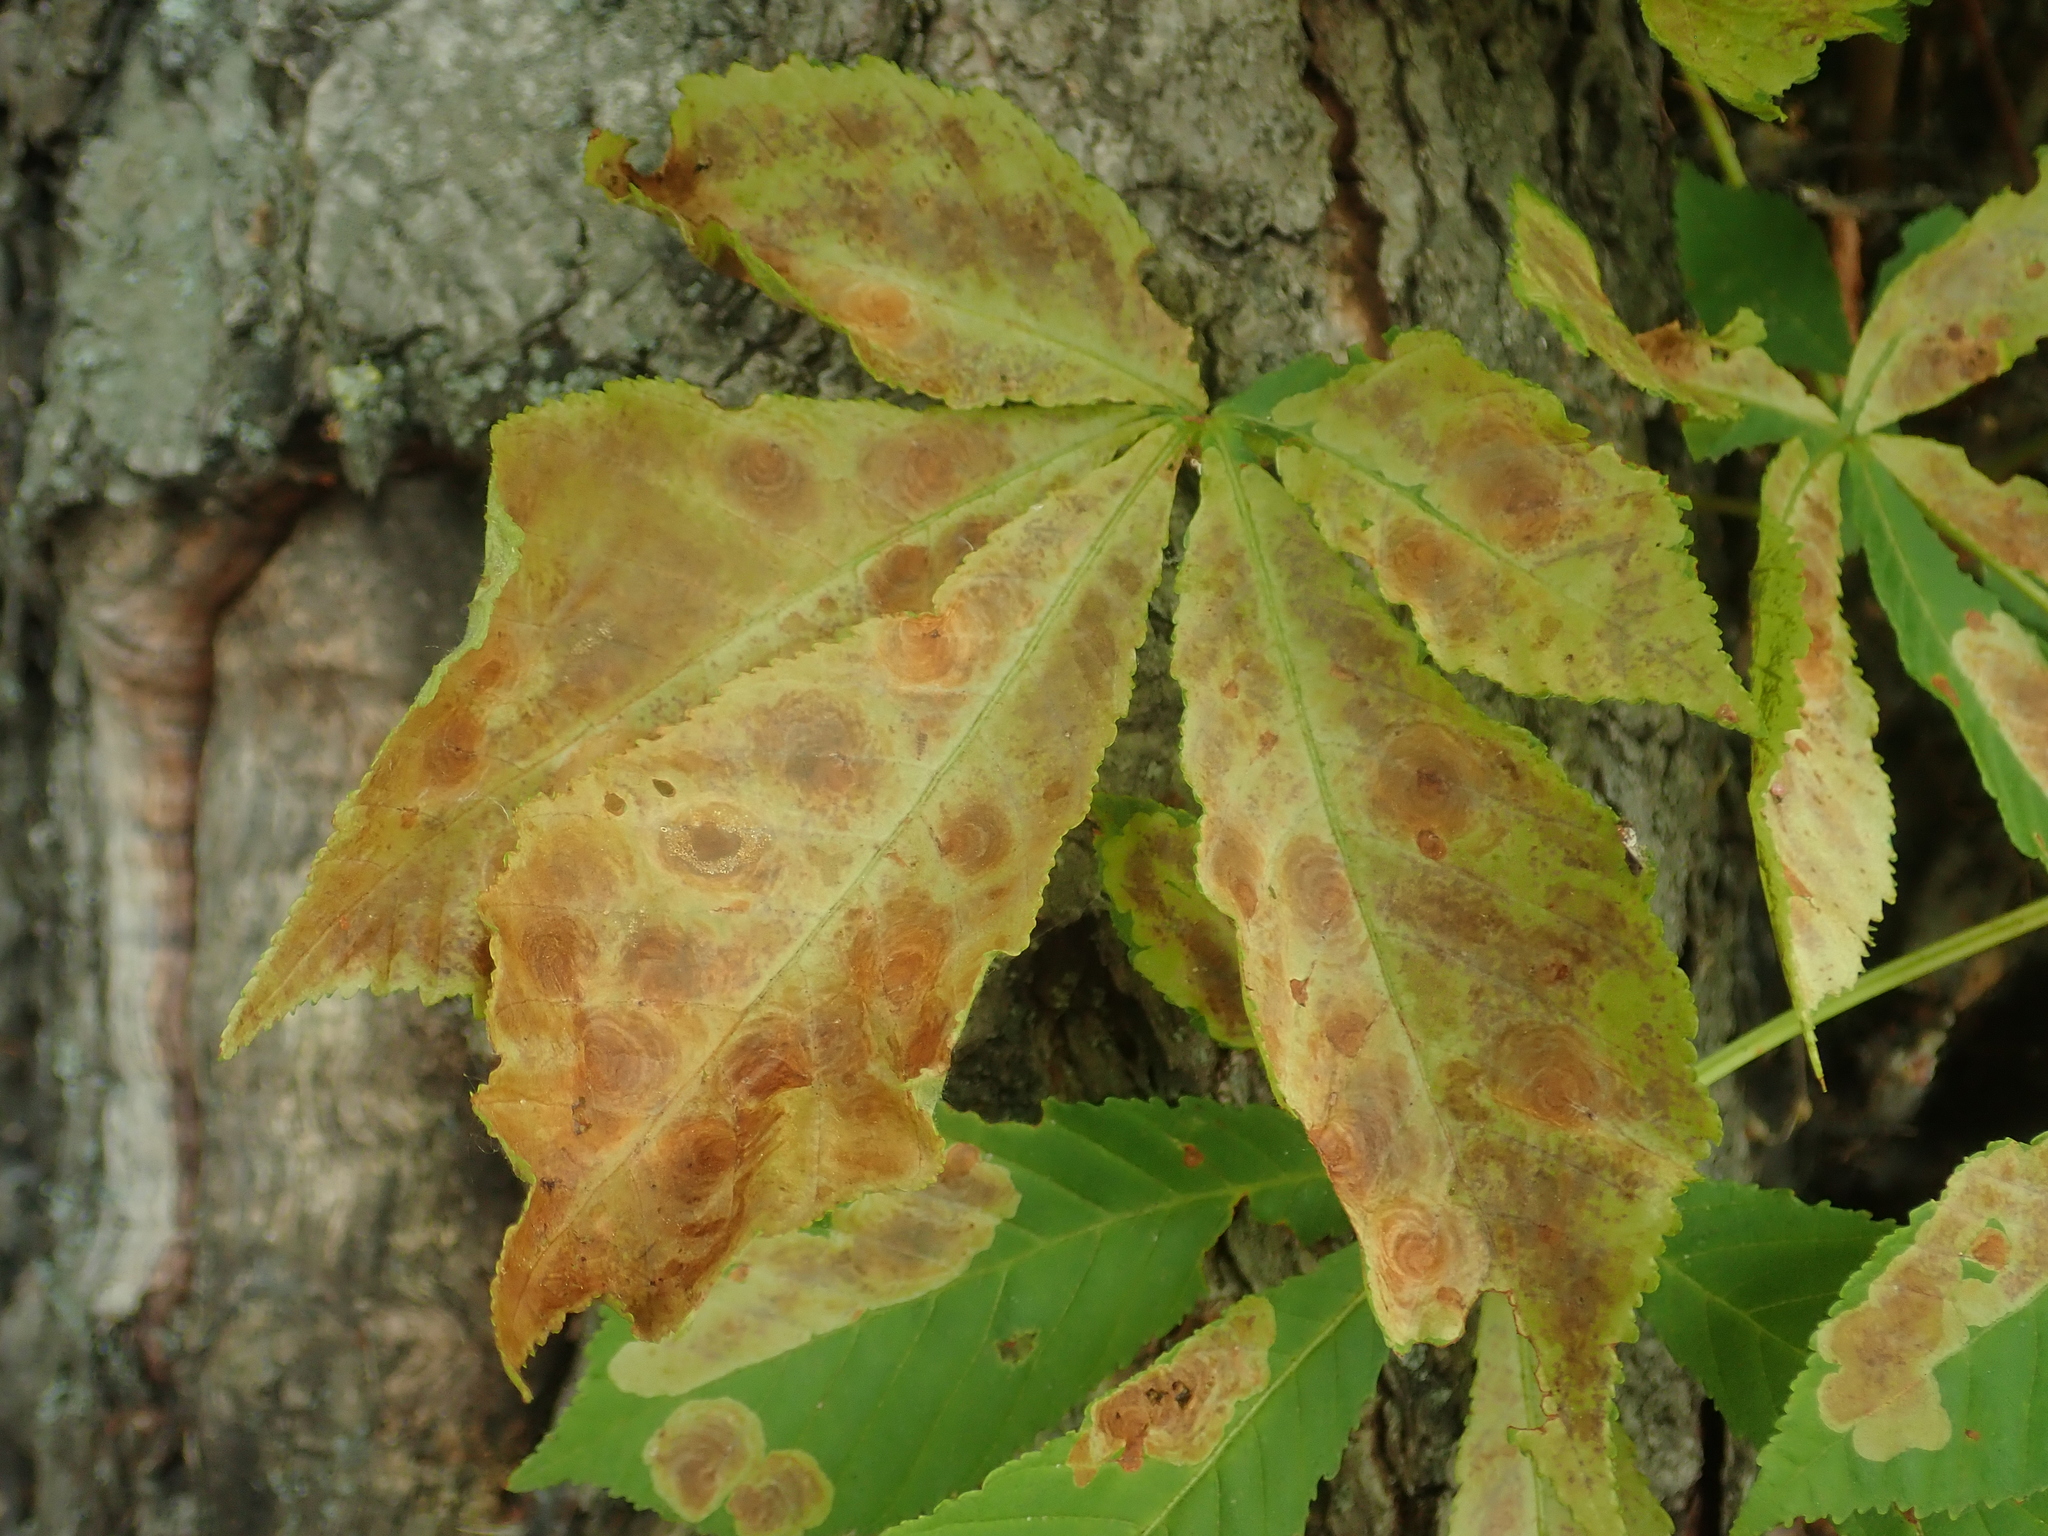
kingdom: Animalia
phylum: Arthropoda
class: Insecta
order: Lepidoptera
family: Gracillariidae
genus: Cameraria
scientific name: Cameraria ohridella
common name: Horse-chestnut leaf-miner
